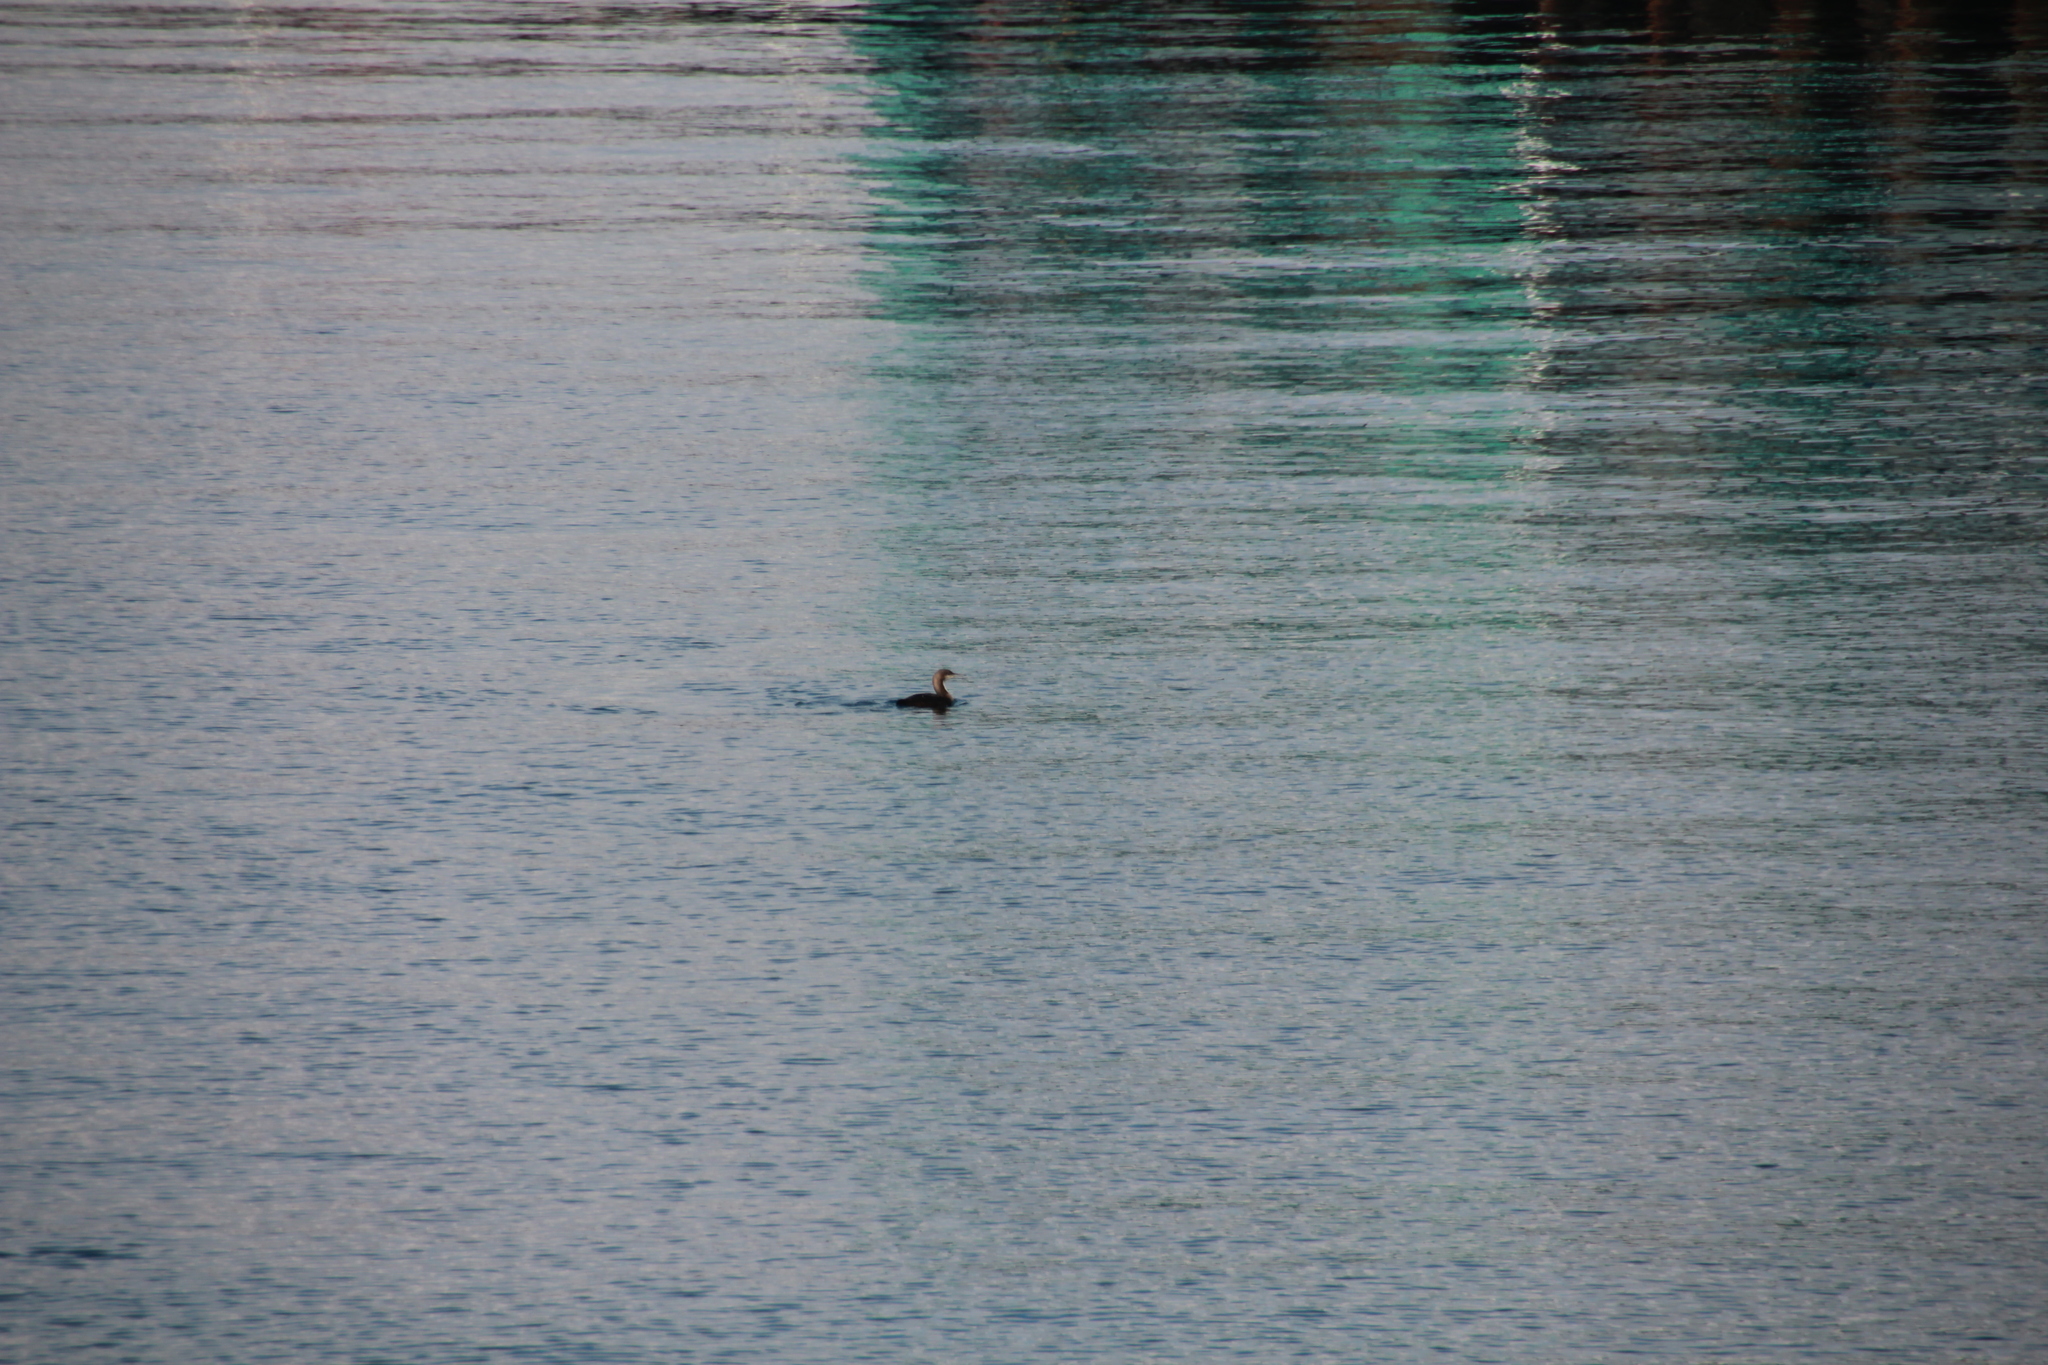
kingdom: Animalia
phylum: Chordata
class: Aves
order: Gaviiformes
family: Gaviidae
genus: Gavia
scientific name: Gavia pacifica
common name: Pacific loon
